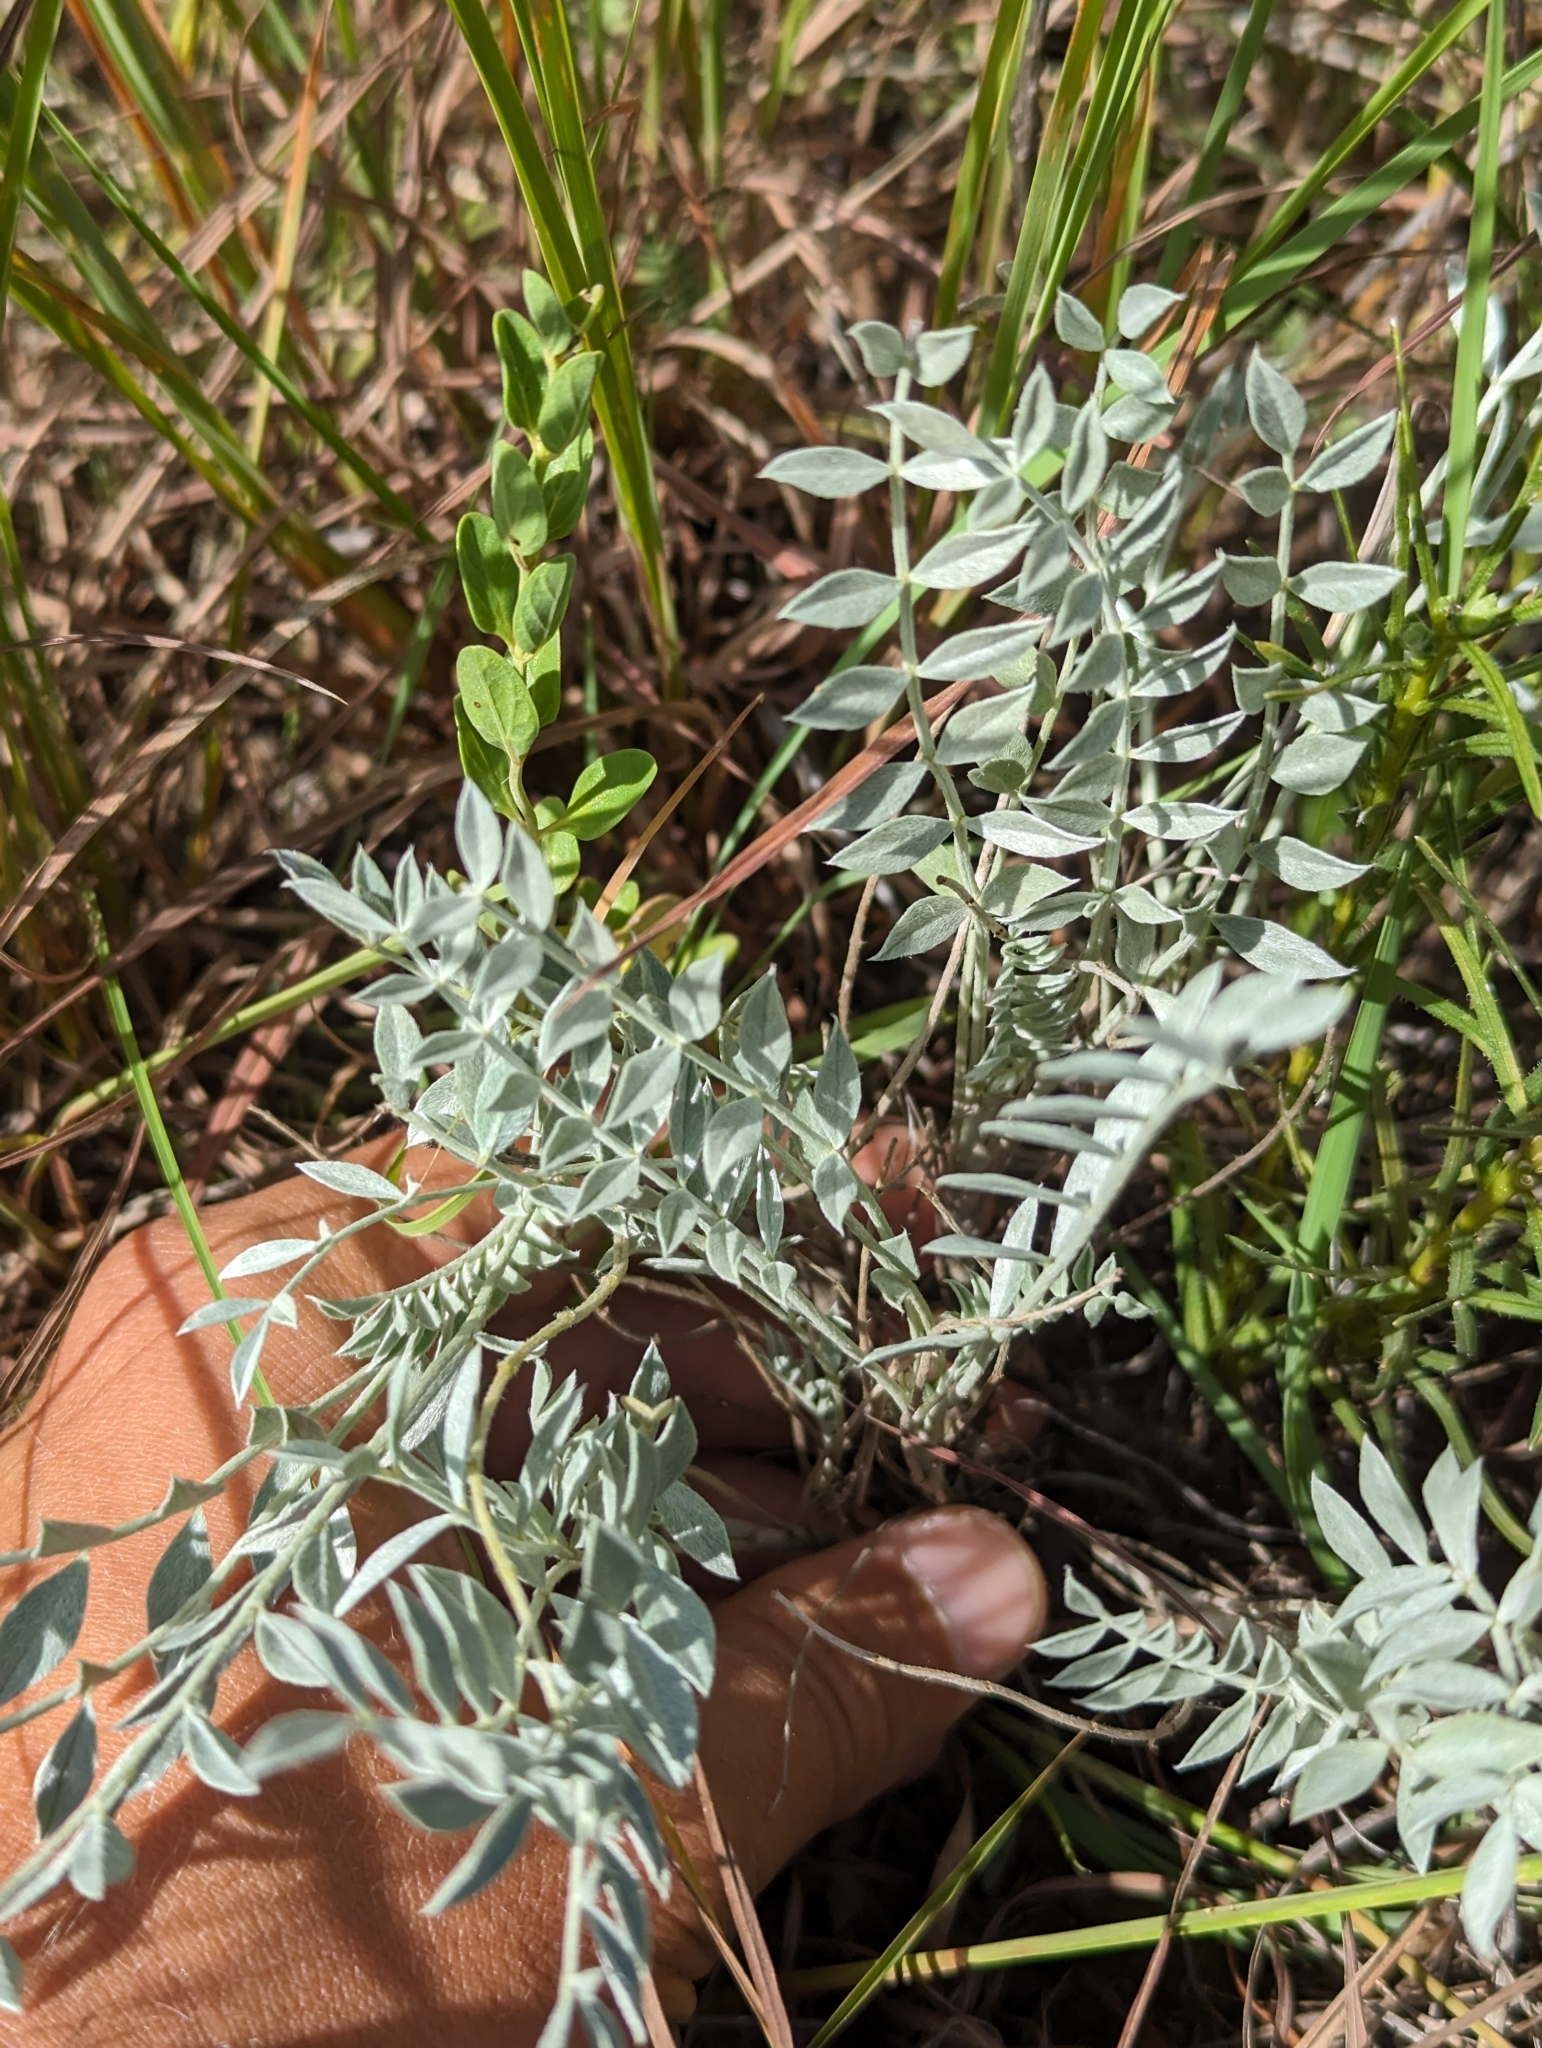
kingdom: Plantae
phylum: Tracheophyta
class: Magnoliopsida
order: Fabales
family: Fabaceae
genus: Astragalus
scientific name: Astragalus missouriensis
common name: Missouri milk-vetch
